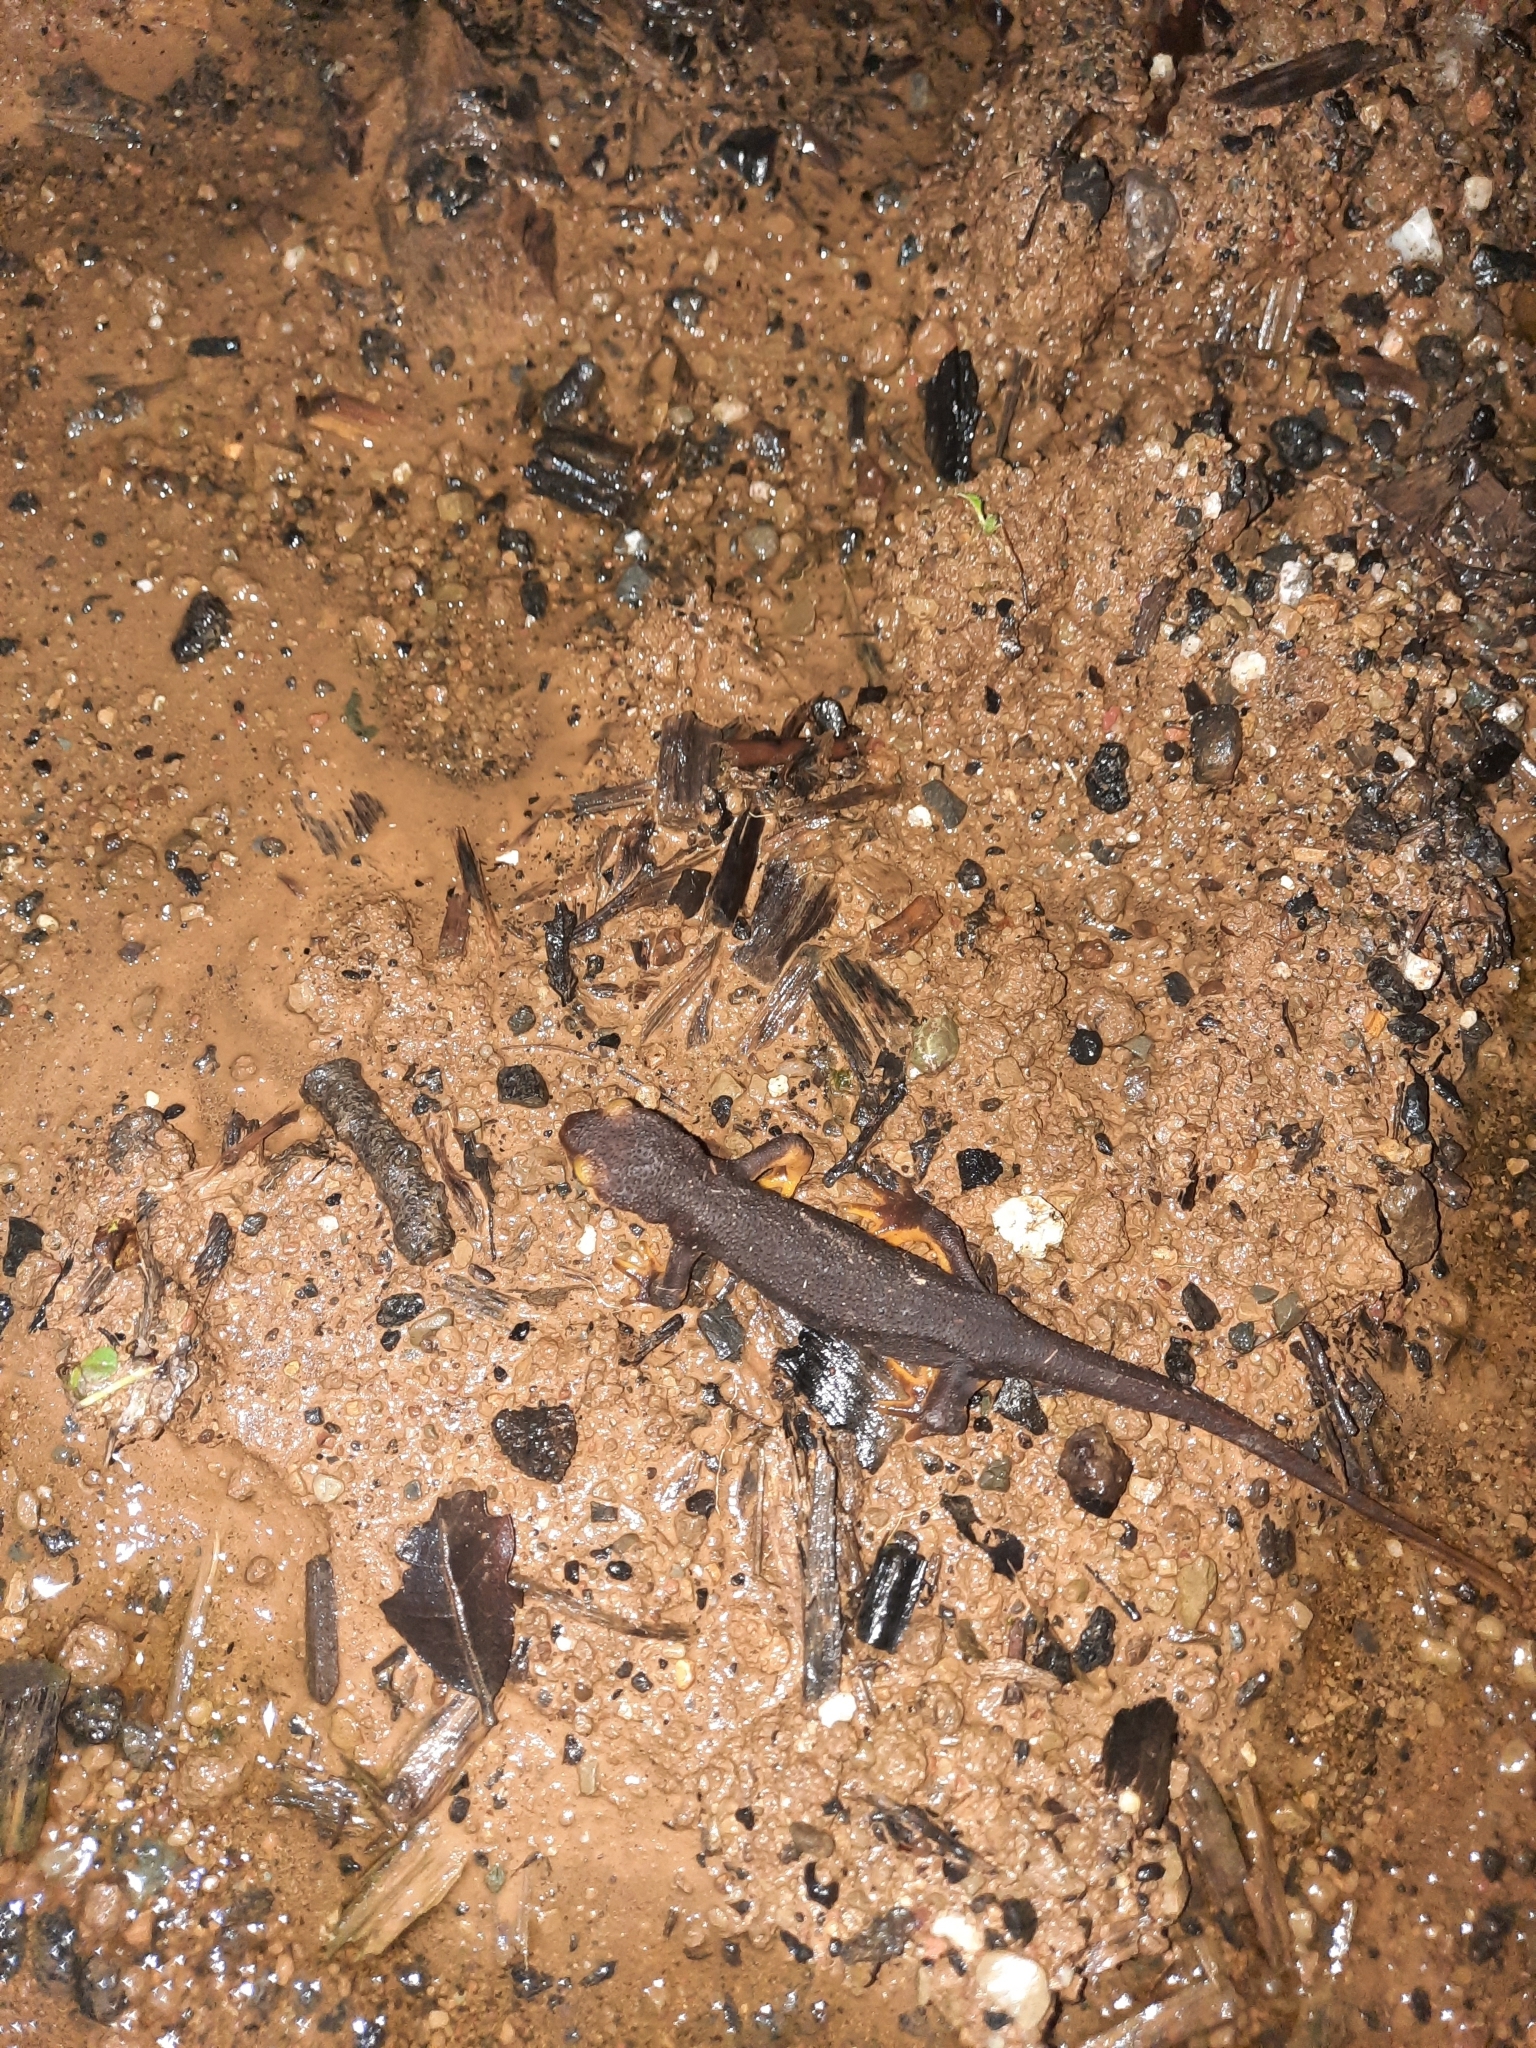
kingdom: Animalia
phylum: Chordata
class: Amphibia
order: Caudata
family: Salamandridae
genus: Taricha
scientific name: Taricha torosa
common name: California newt
